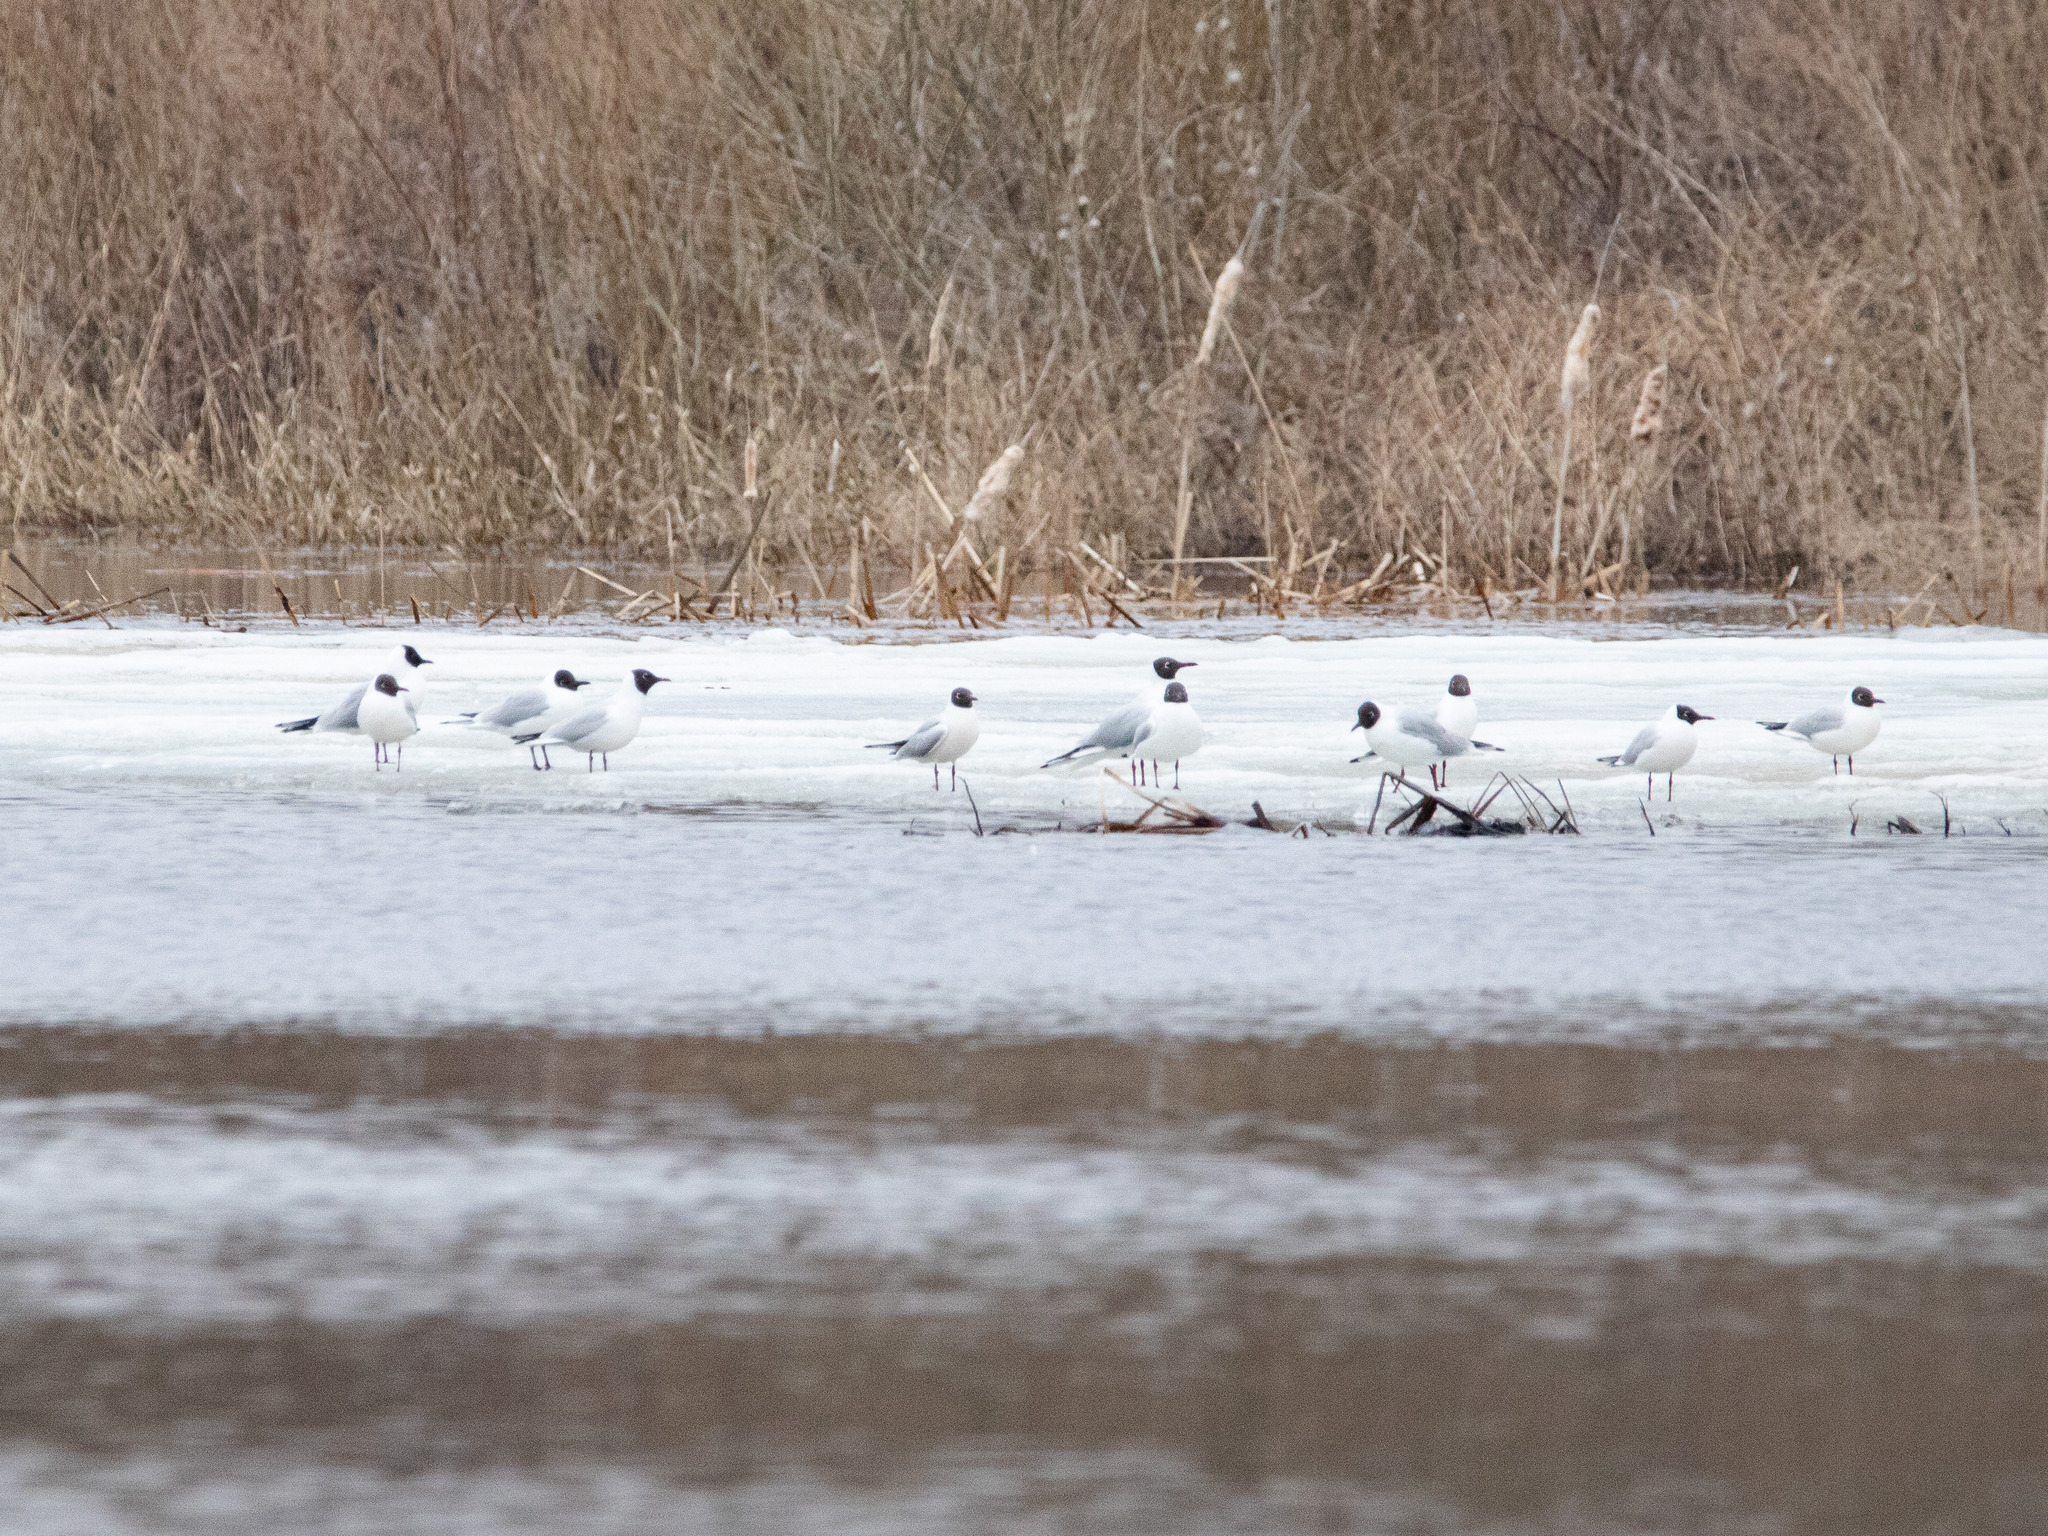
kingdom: Animalia
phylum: Chordata
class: Aves
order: Charadriiformes
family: Laridae
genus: Chroicocephalus
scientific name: Chroicocephalus ridibundus
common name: Black-headed gull
